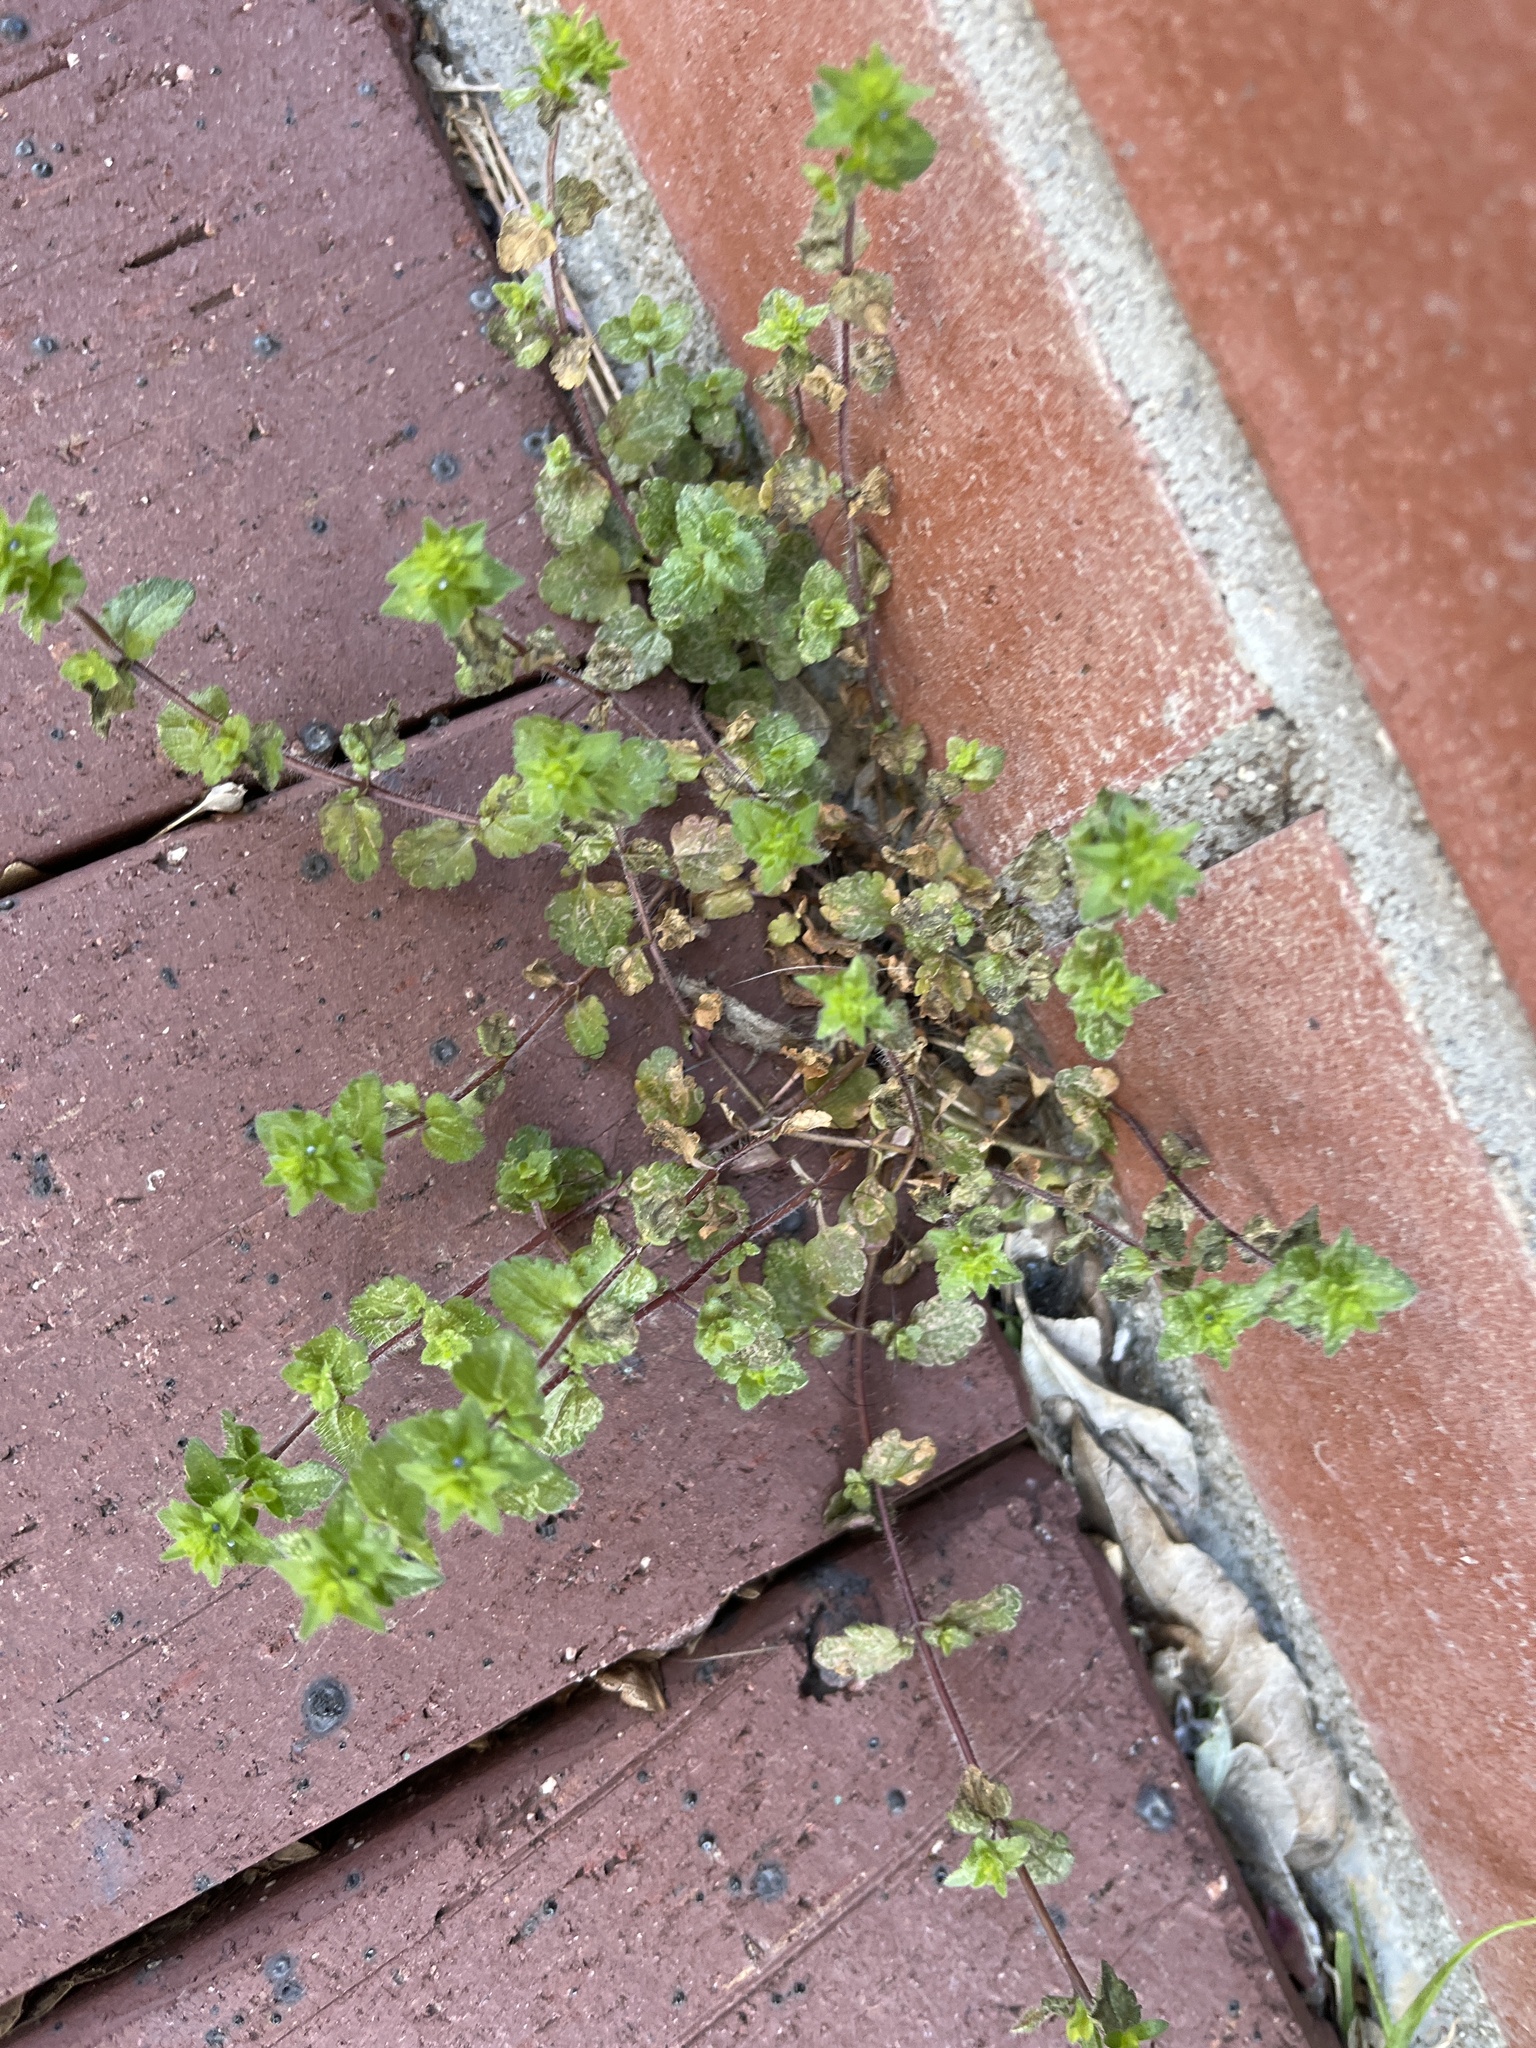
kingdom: Plantae
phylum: Tracheophyta
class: Magnoliopsida
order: Lamiales
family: Plantaginaceae
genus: Veronica
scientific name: Veronica arvensis
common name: Corn speedwell
